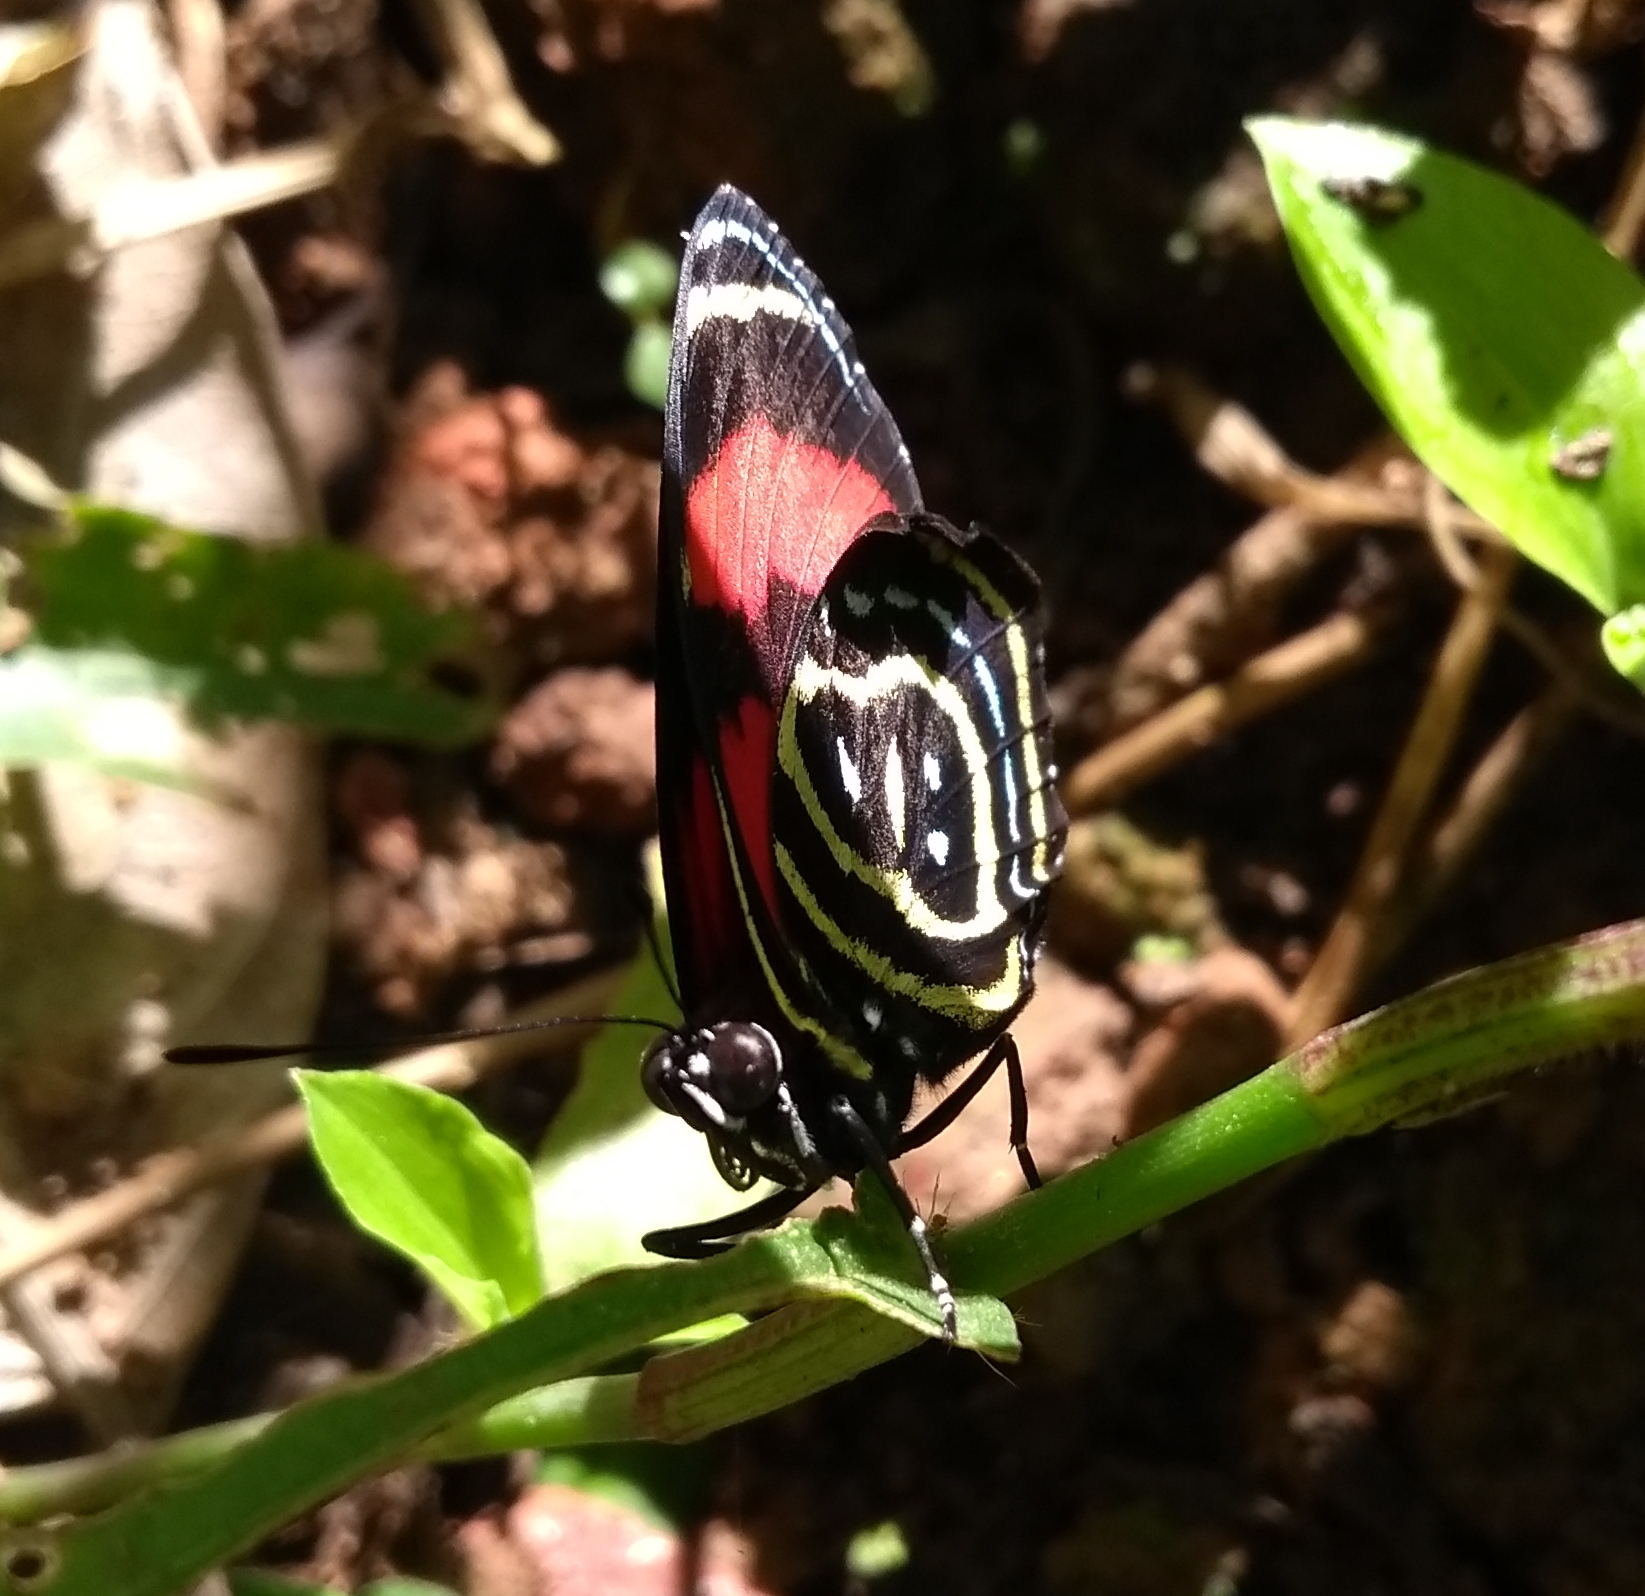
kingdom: Animalia
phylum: Arthropoda
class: Insecta
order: Lepidoptera
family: Nymphalidae
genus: Catagramma
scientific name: Catagramma astarte
